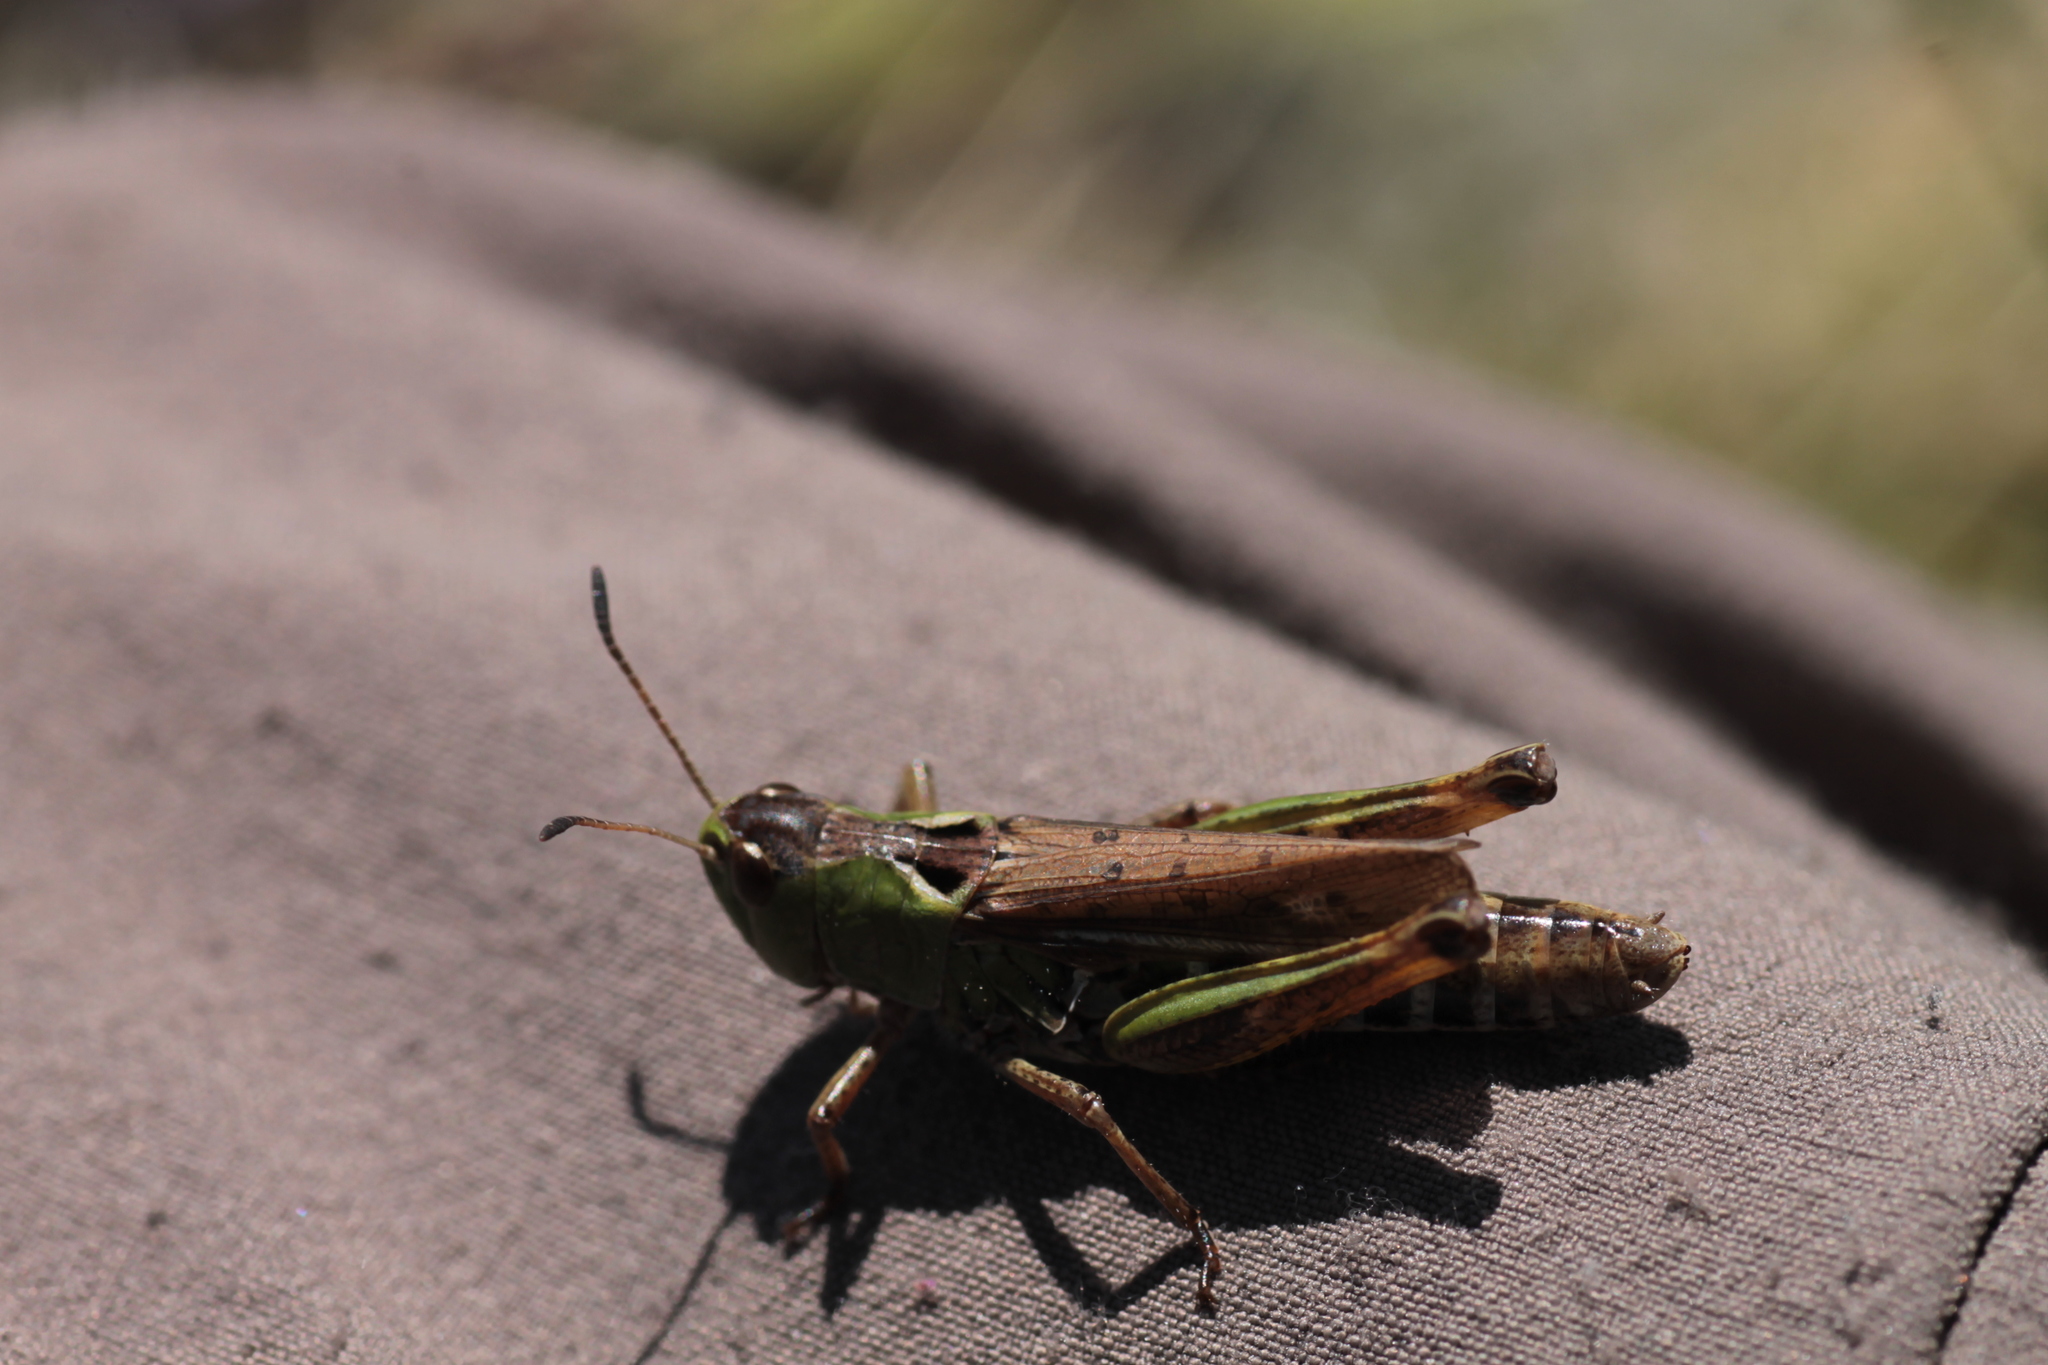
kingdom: Animalia
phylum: Arthropoda
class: Insecta
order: Orthoptera
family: Acrididae
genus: Gomphocerus
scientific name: Gomphocerus sibiricus
